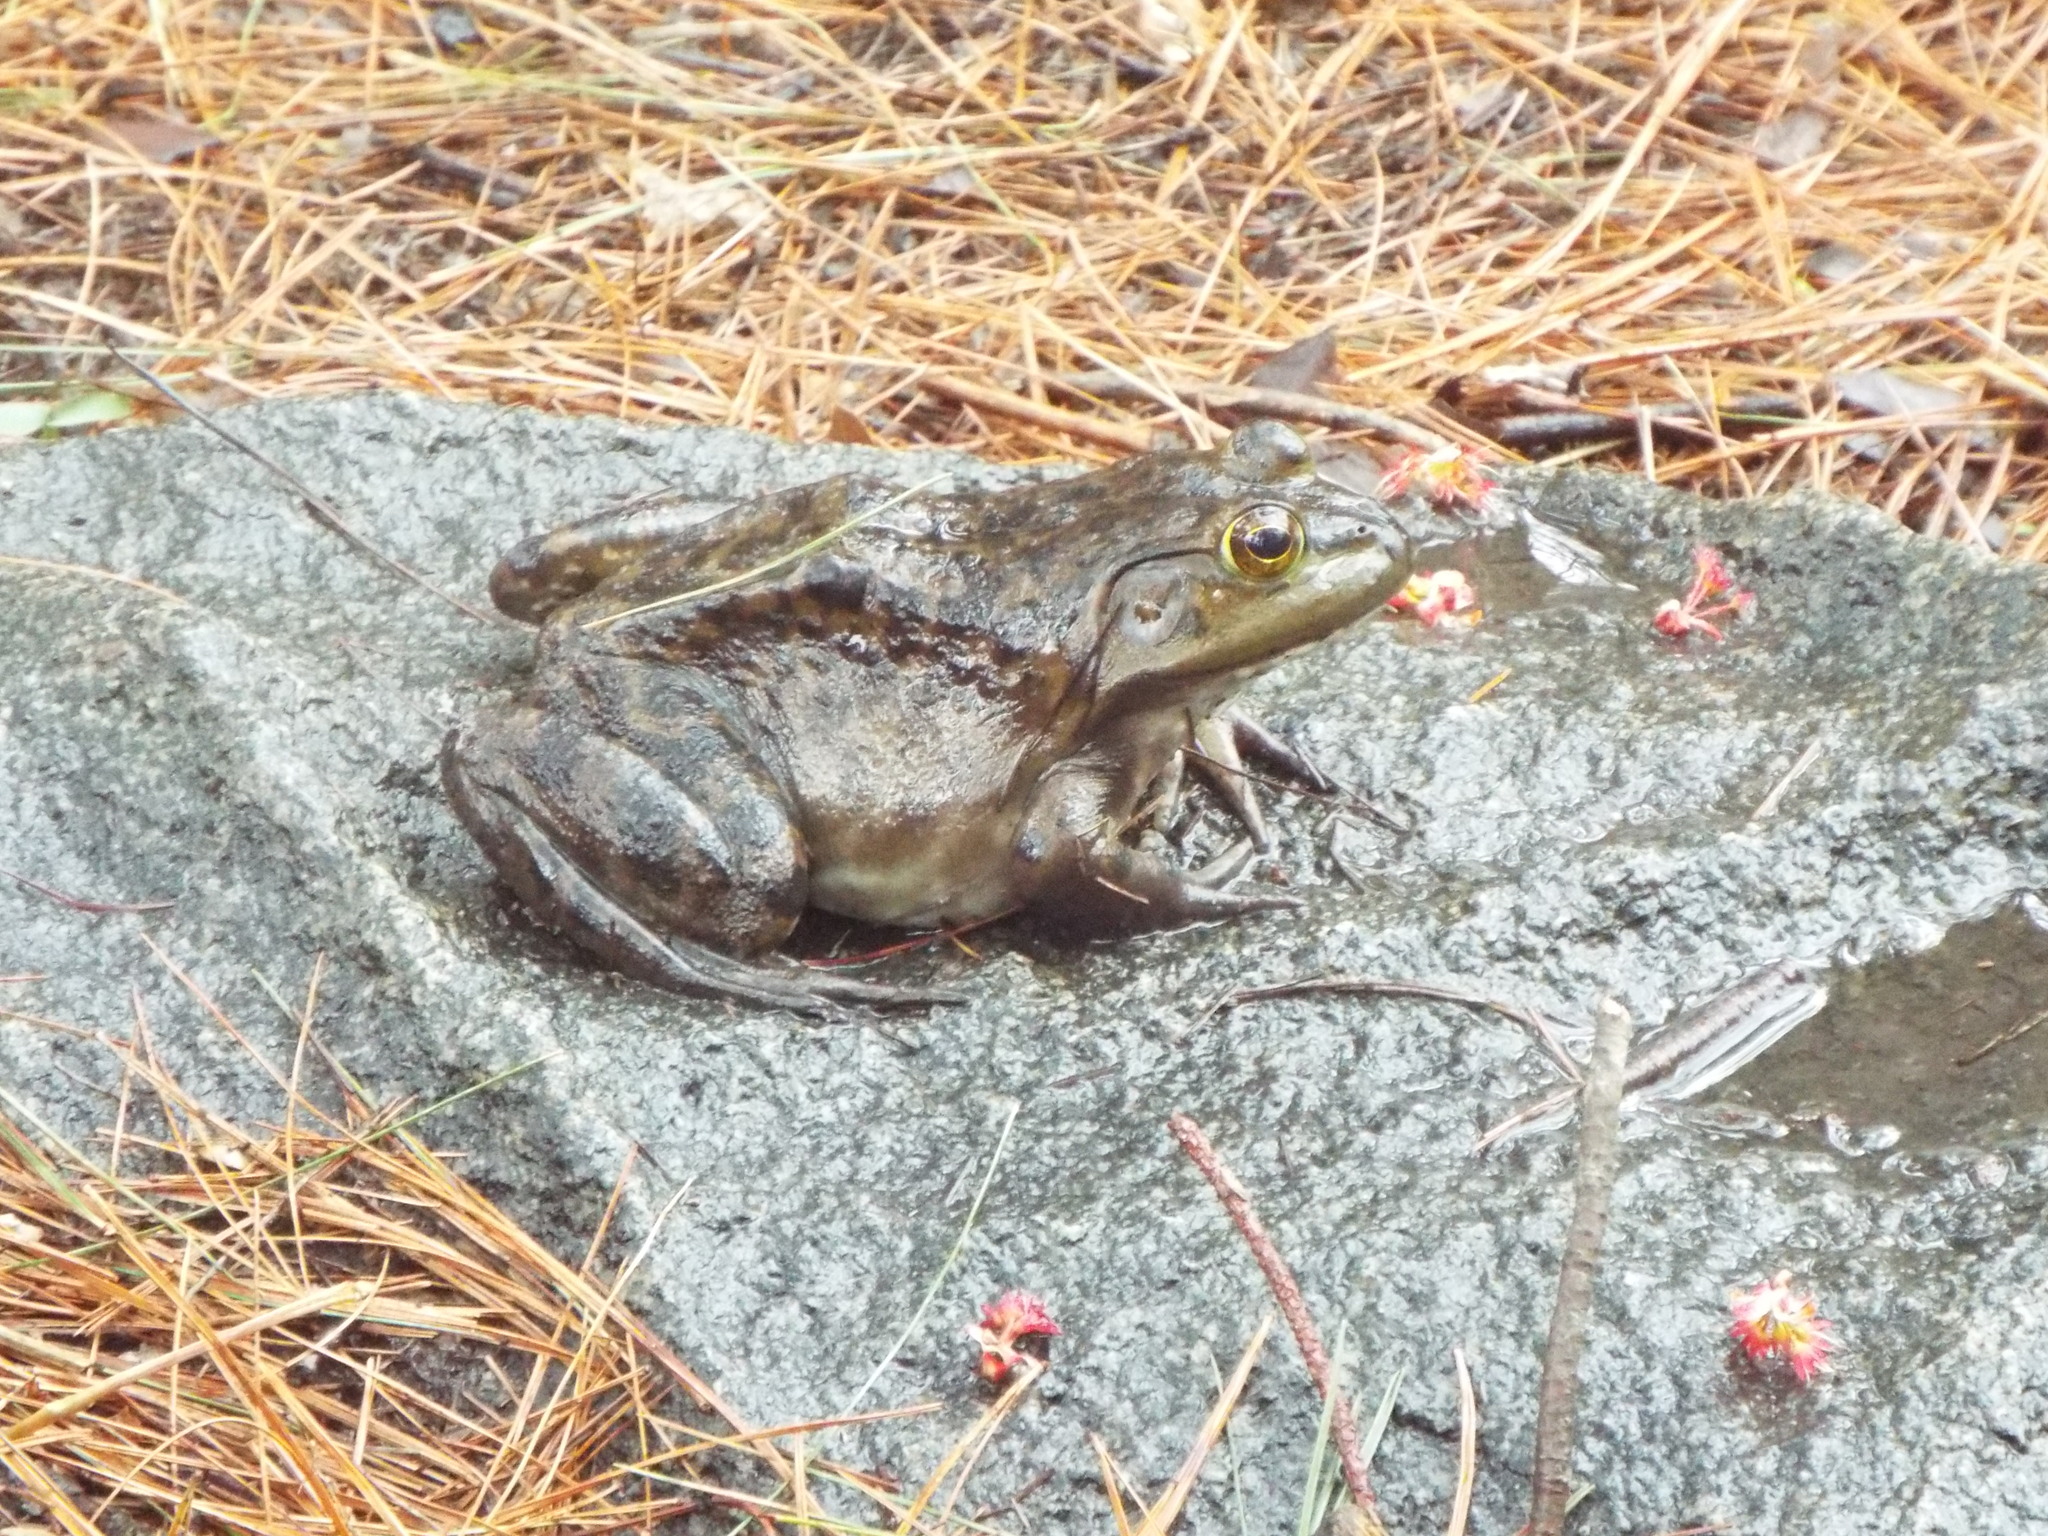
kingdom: Animalia
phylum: Chordata
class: Amphibia
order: Anura
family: Ranidae
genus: Lithobates
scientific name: Lithobates catesbeianus
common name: American bullfrog
